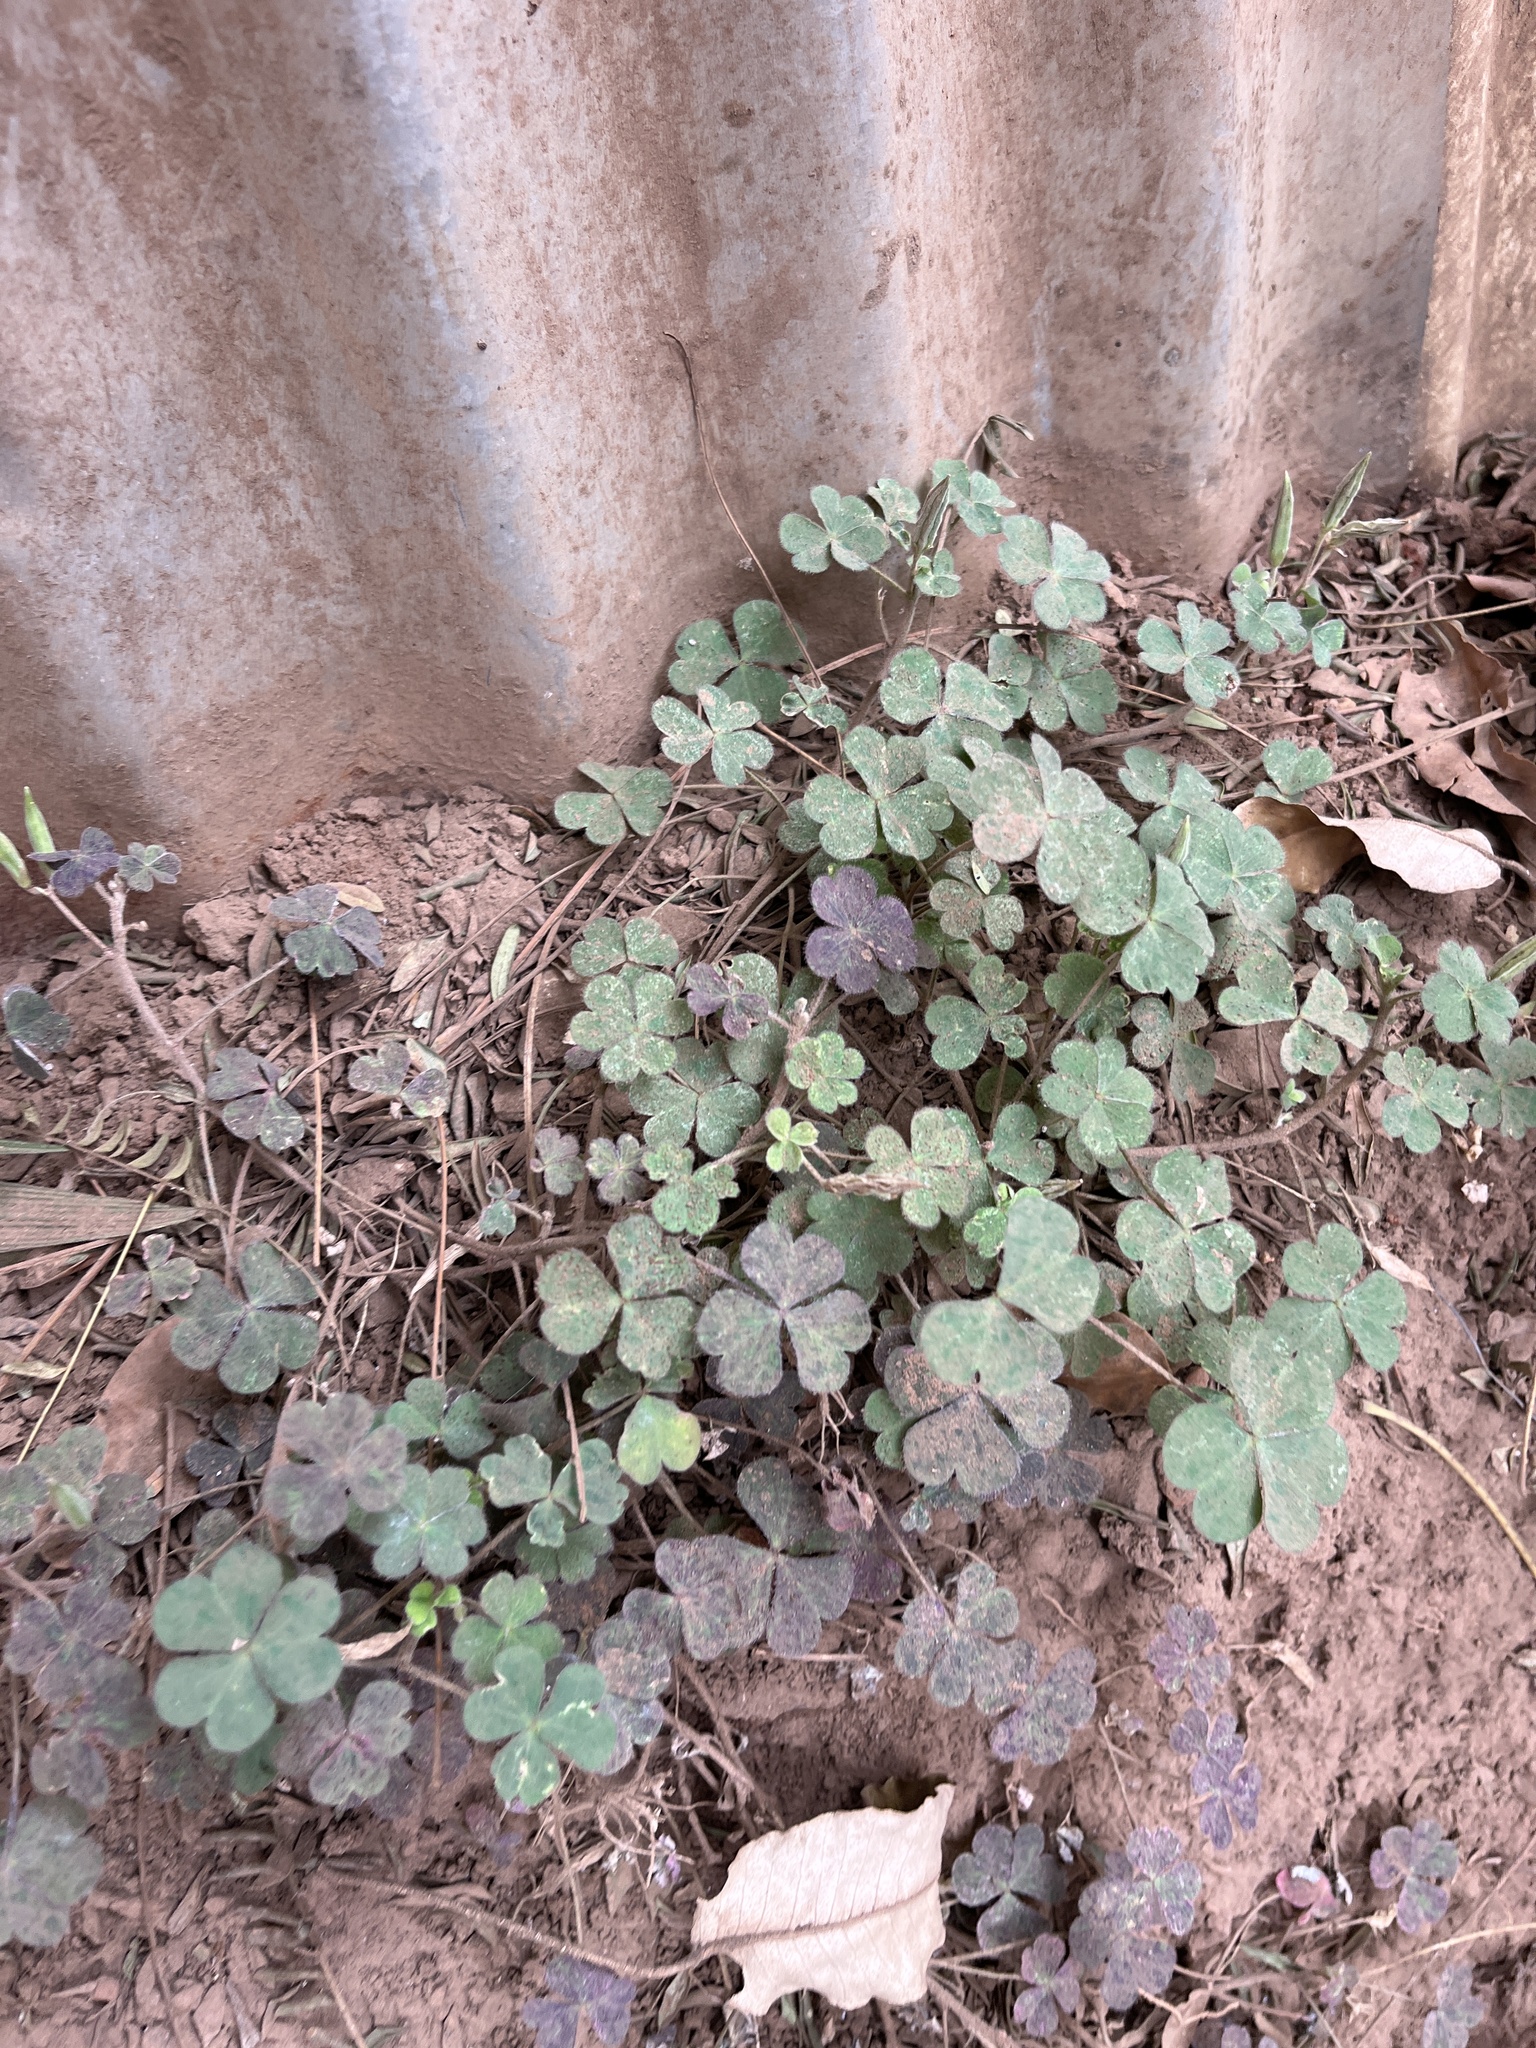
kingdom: Plantae
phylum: Tracheophyta
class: Magnoliopsida
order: Oxalidales
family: Oxalidaceae
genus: Oxalis
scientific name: Oxalis corniculata
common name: Procumbent yellow-sorrel
